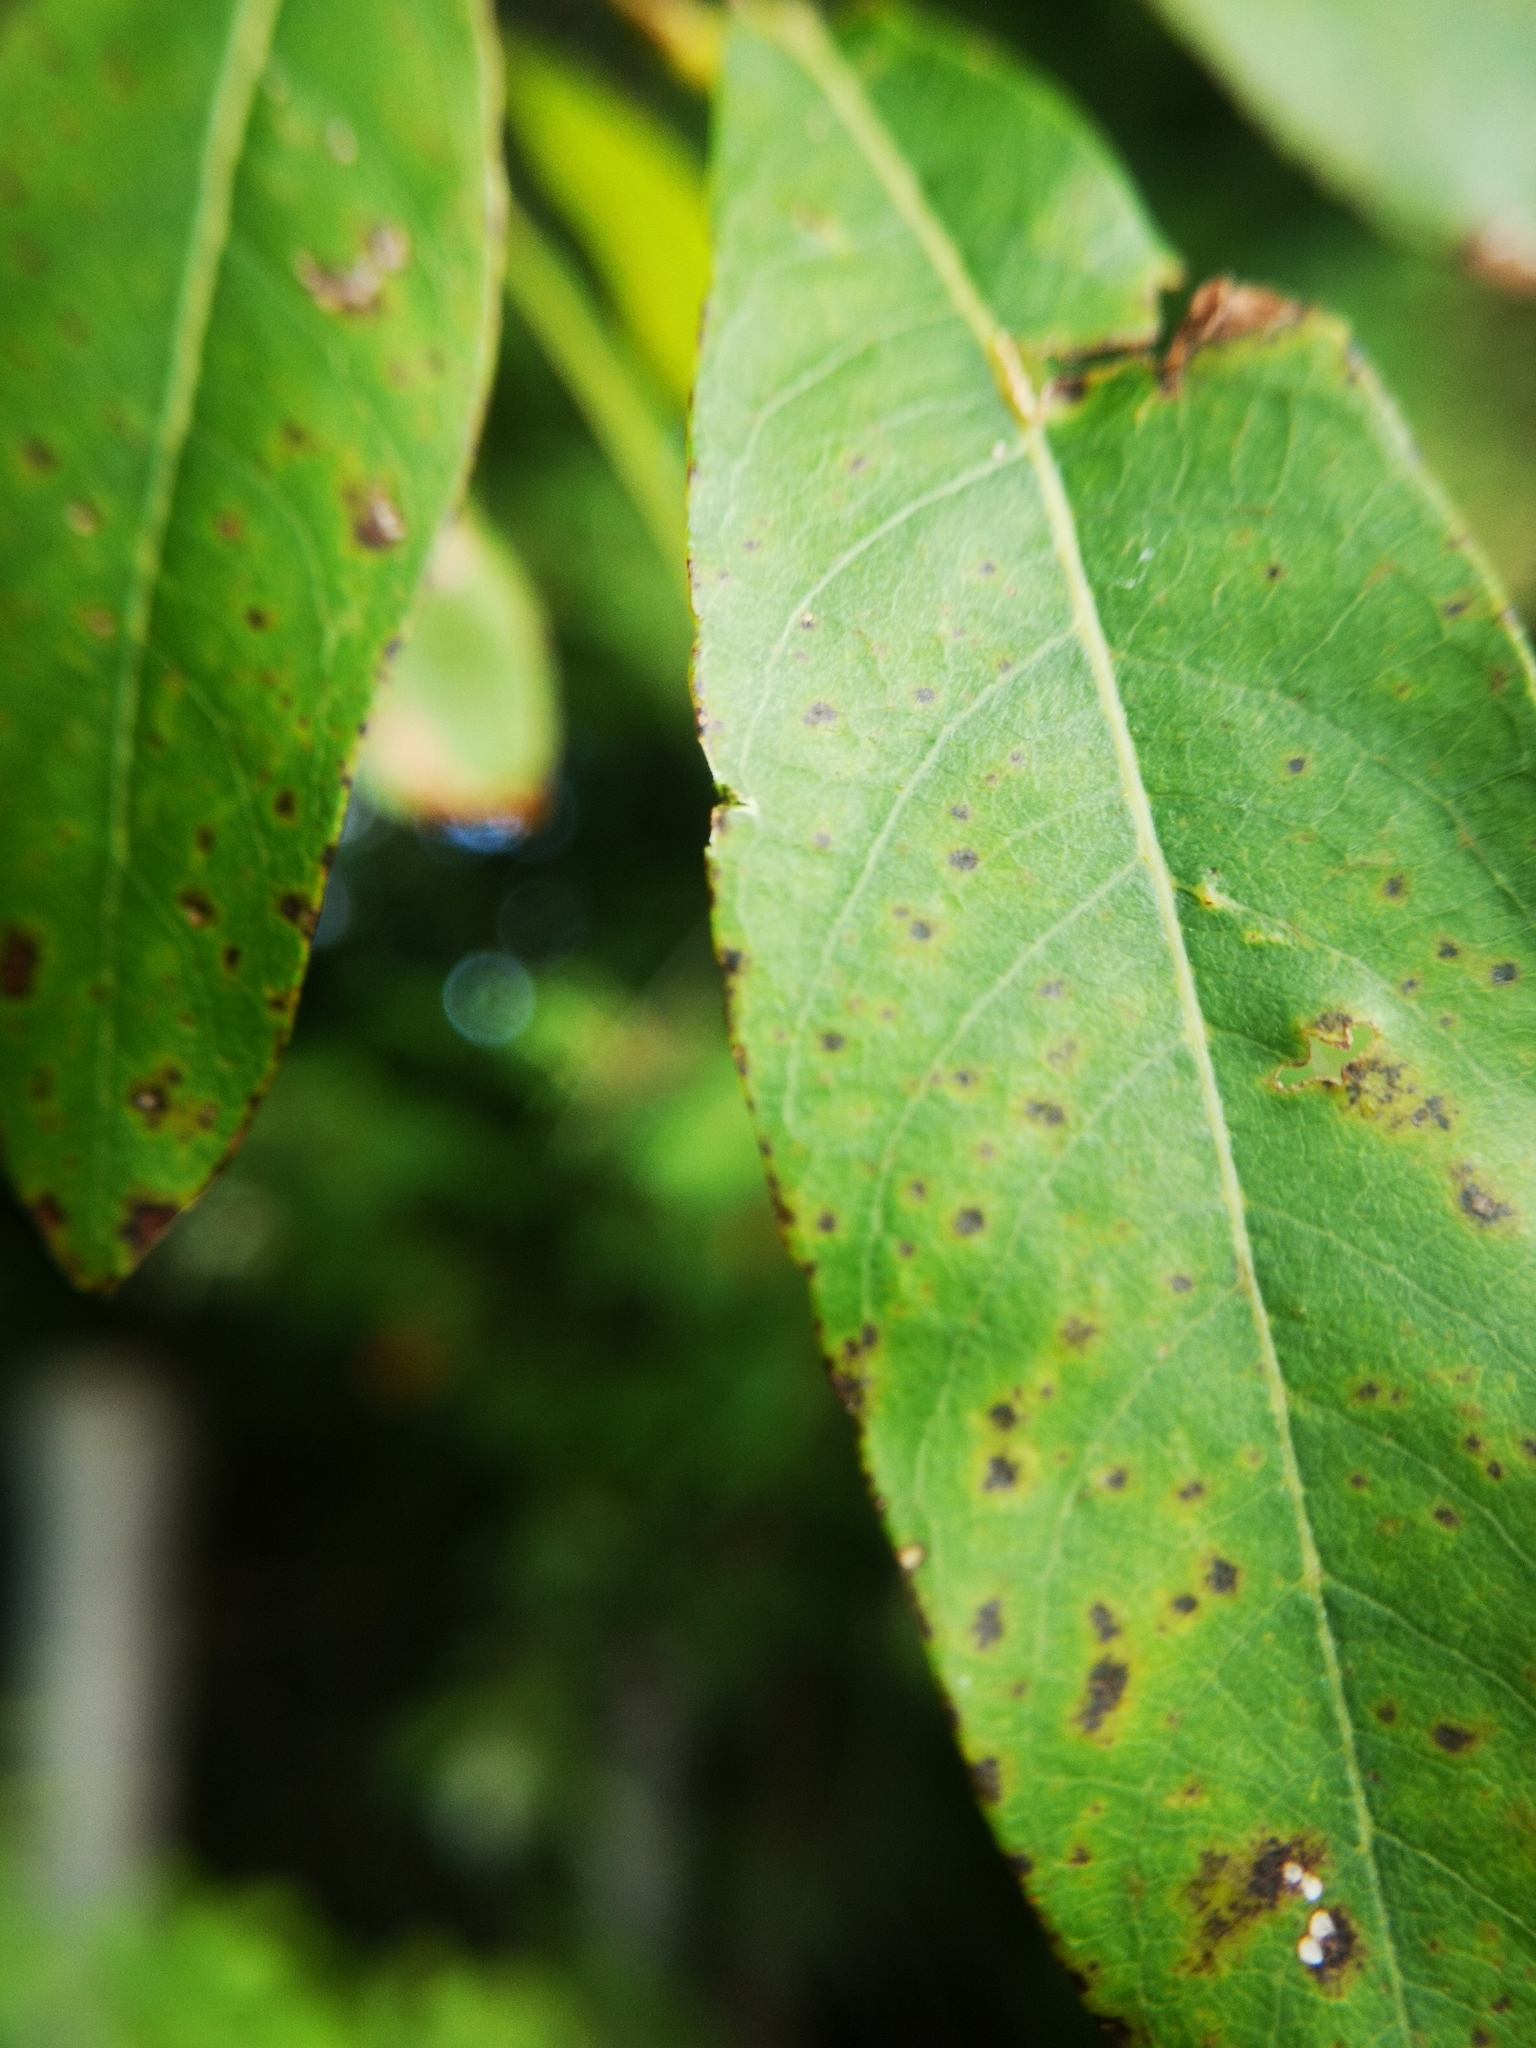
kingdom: Animalia
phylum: Arthropoda
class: Insecta
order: Diptera
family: Cecidomyiidae
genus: Rabdophaga
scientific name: Rabdophaga strobiloides
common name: Willow pinecone gall midge
